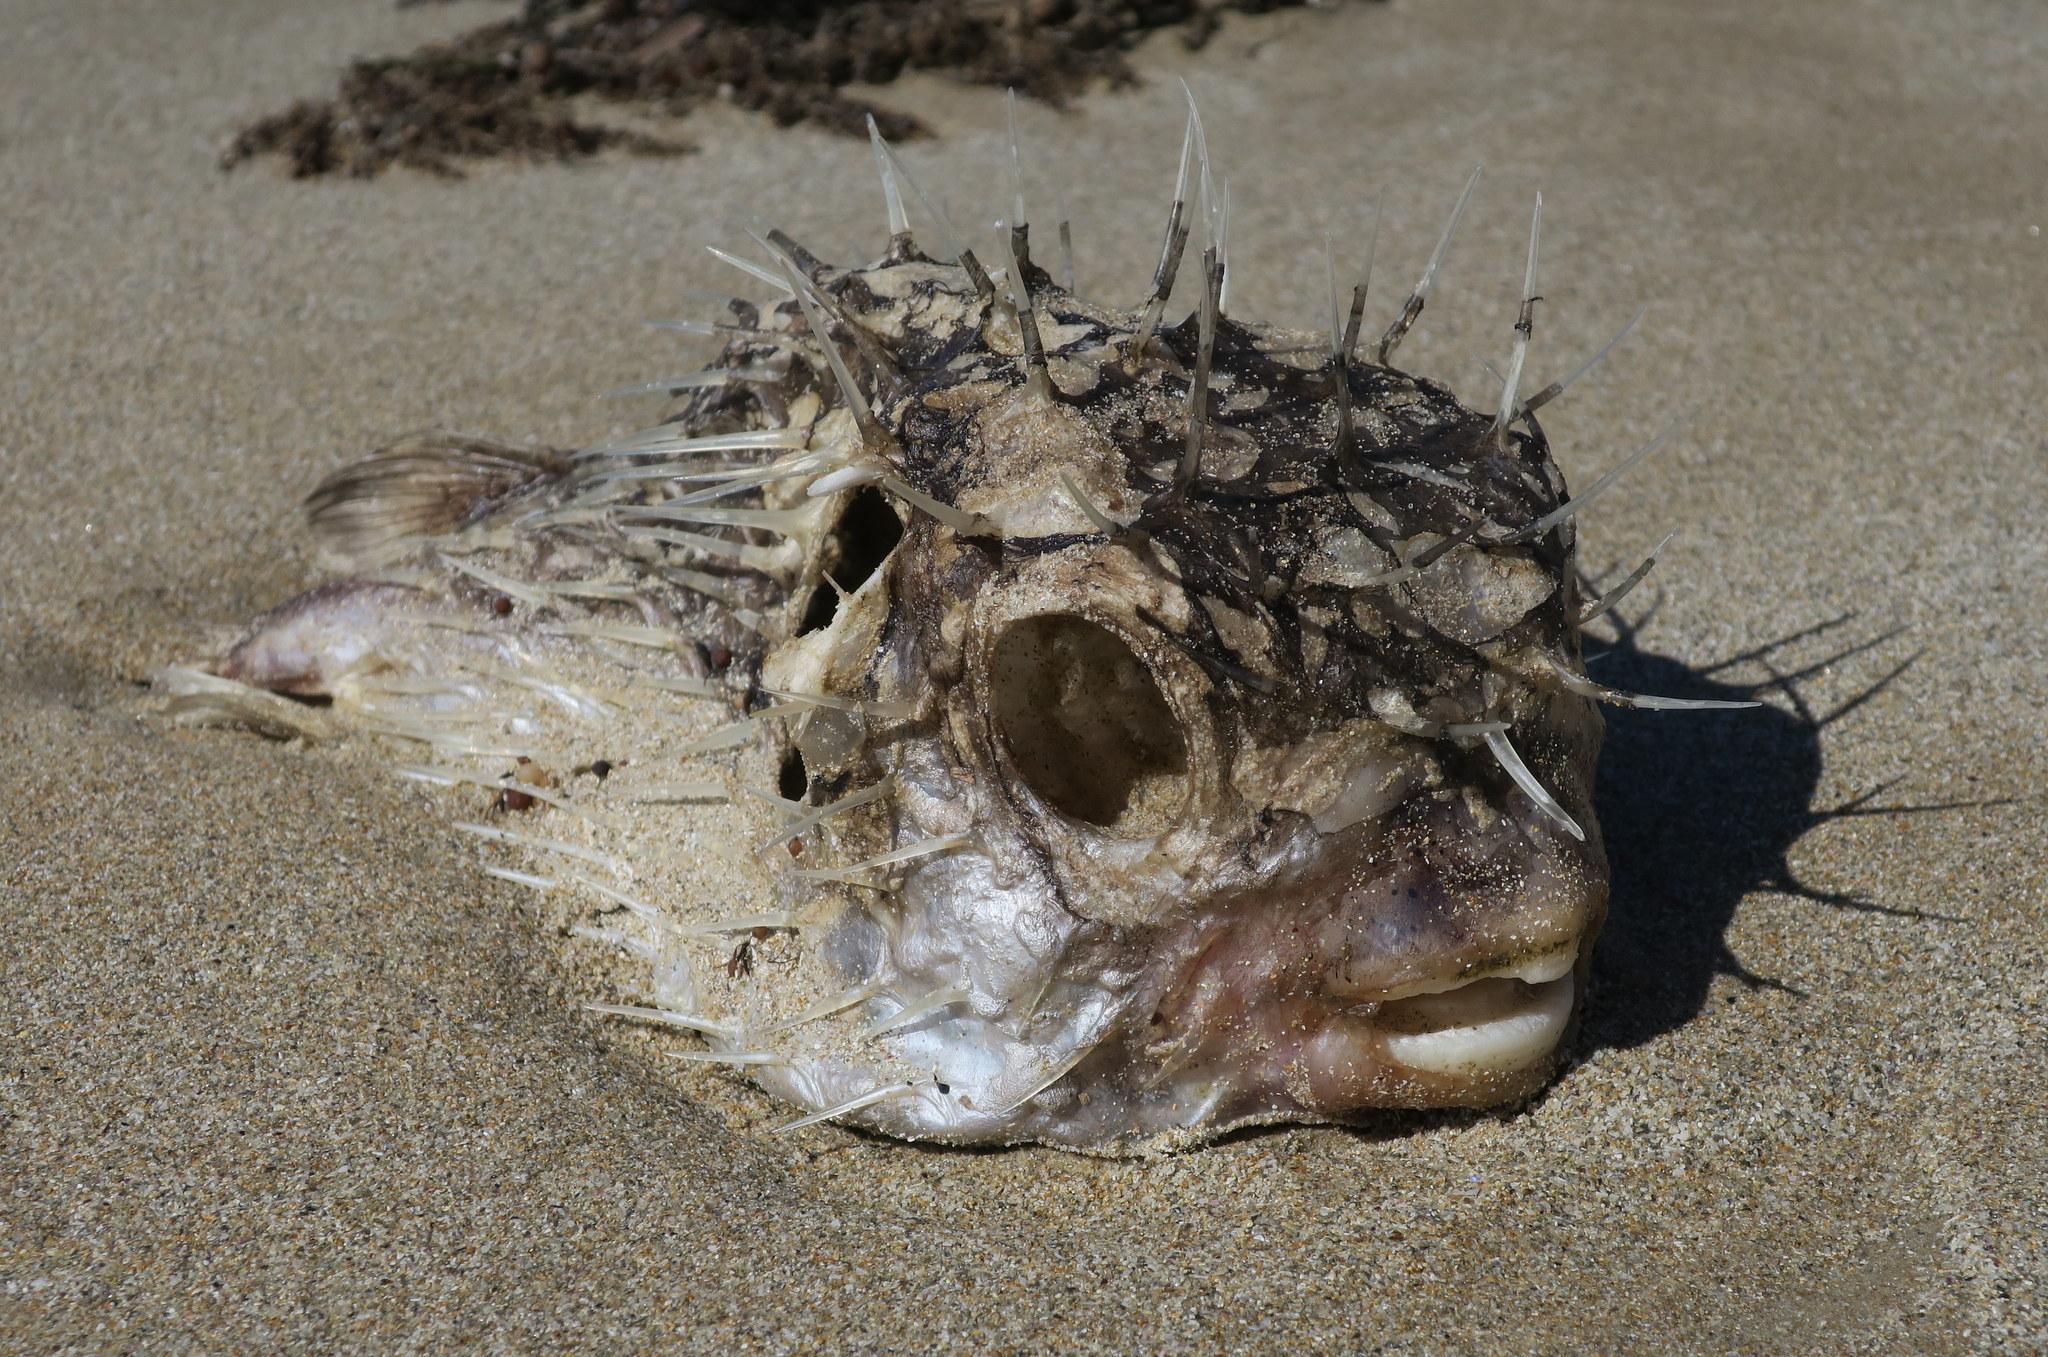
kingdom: Animalia
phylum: Chordata
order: Tetraodontiformes
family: Diodontidae
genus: Diodon
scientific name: Diodon nicthemerus
